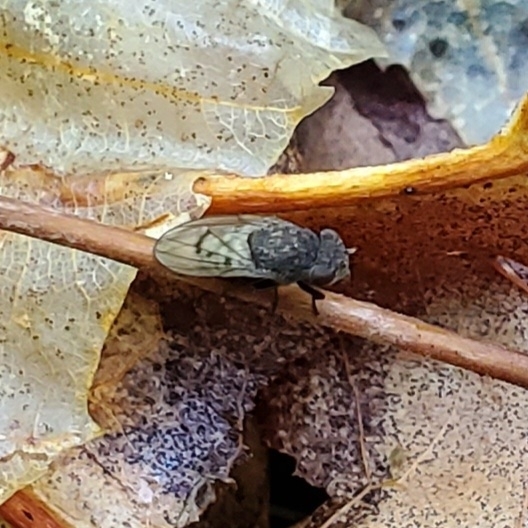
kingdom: Animalia
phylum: Arthropoda
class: Insecta
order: Diptera
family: Ephydridae
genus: Paralimna
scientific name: Paralimna punctipennis
